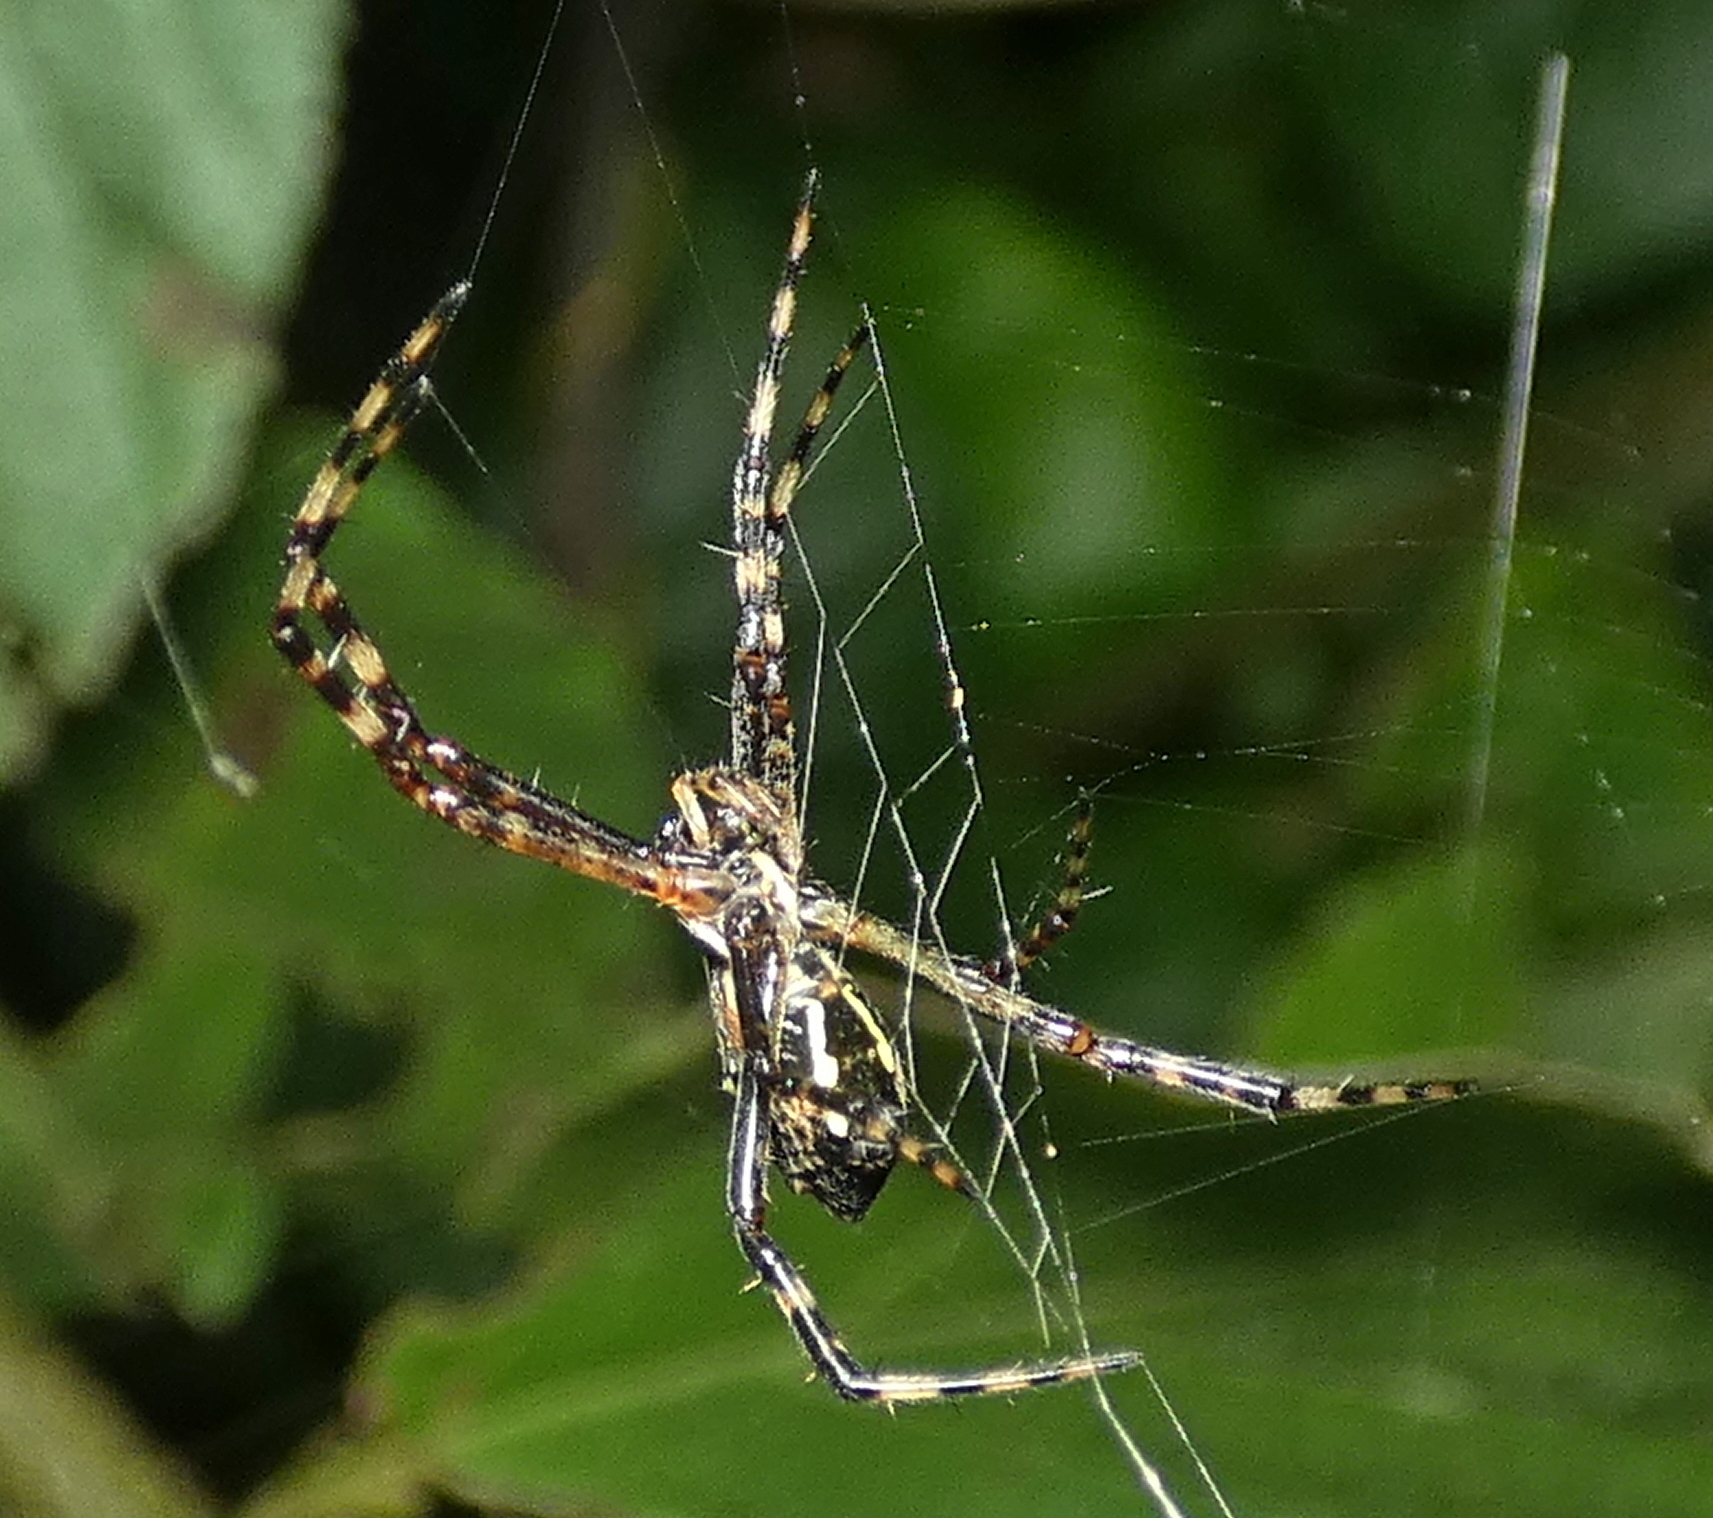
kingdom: Animalia
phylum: Arthropoda
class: Arachnida
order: Araneae
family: Araneidae
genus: Argiope
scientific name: Argiope argentata
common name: Orb weavers
